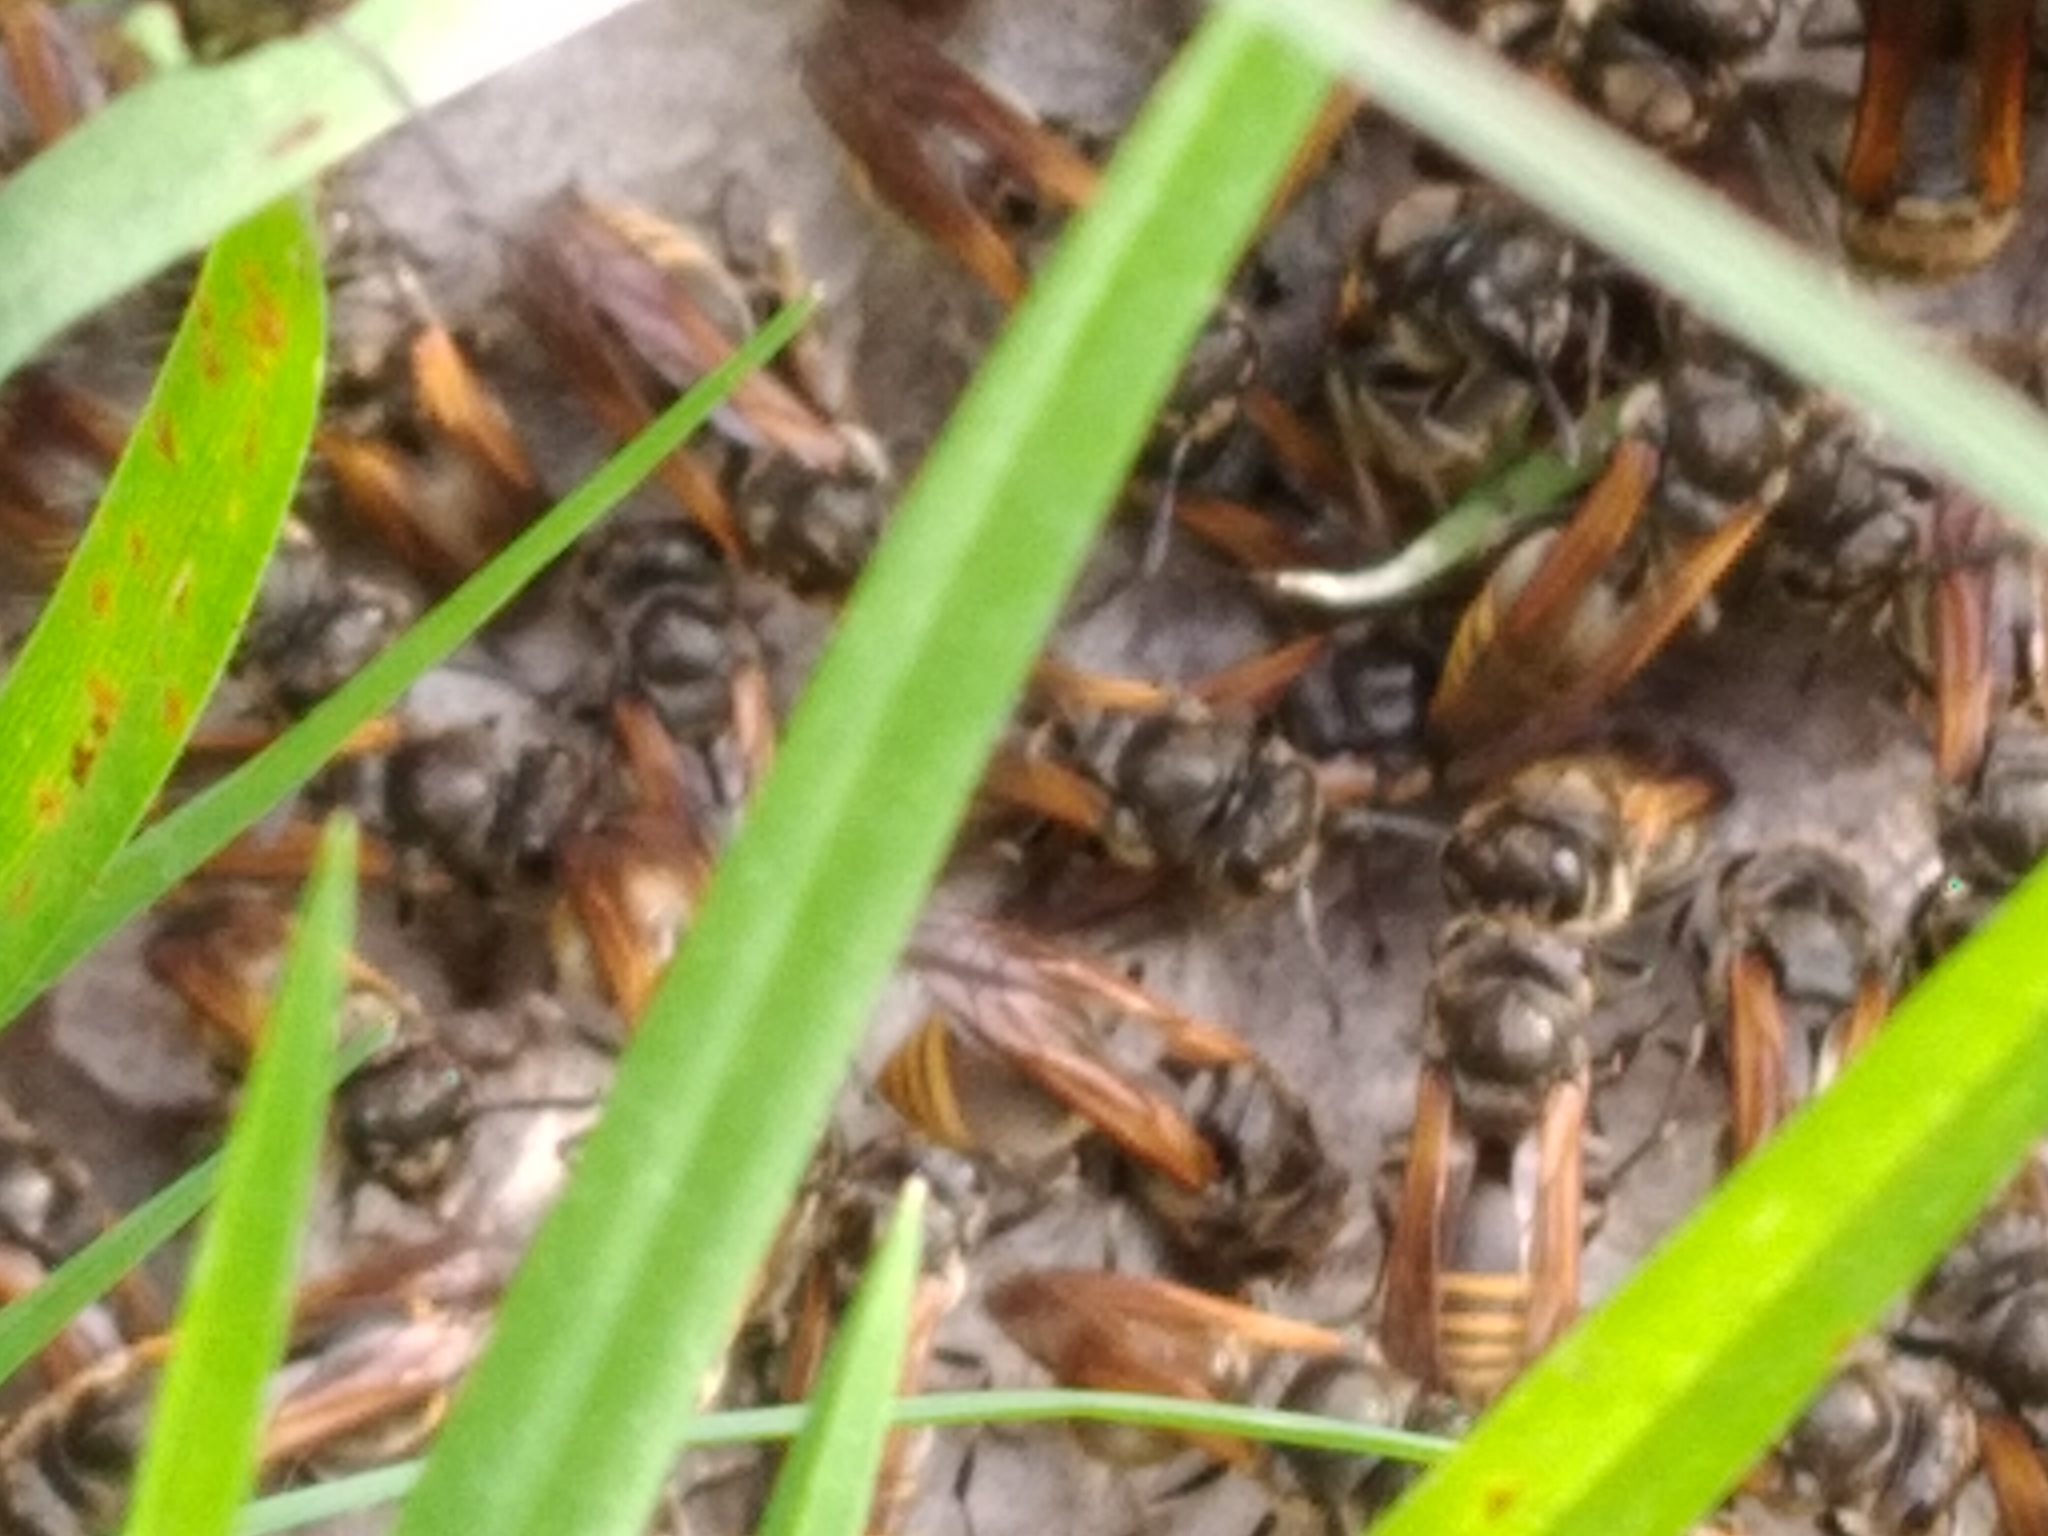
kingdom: Animalia
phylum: Arthropoda
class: Insecta
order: Hymenoptera
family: Vespidae
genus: Brachygastra
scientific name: Brachygastra lecheguana
